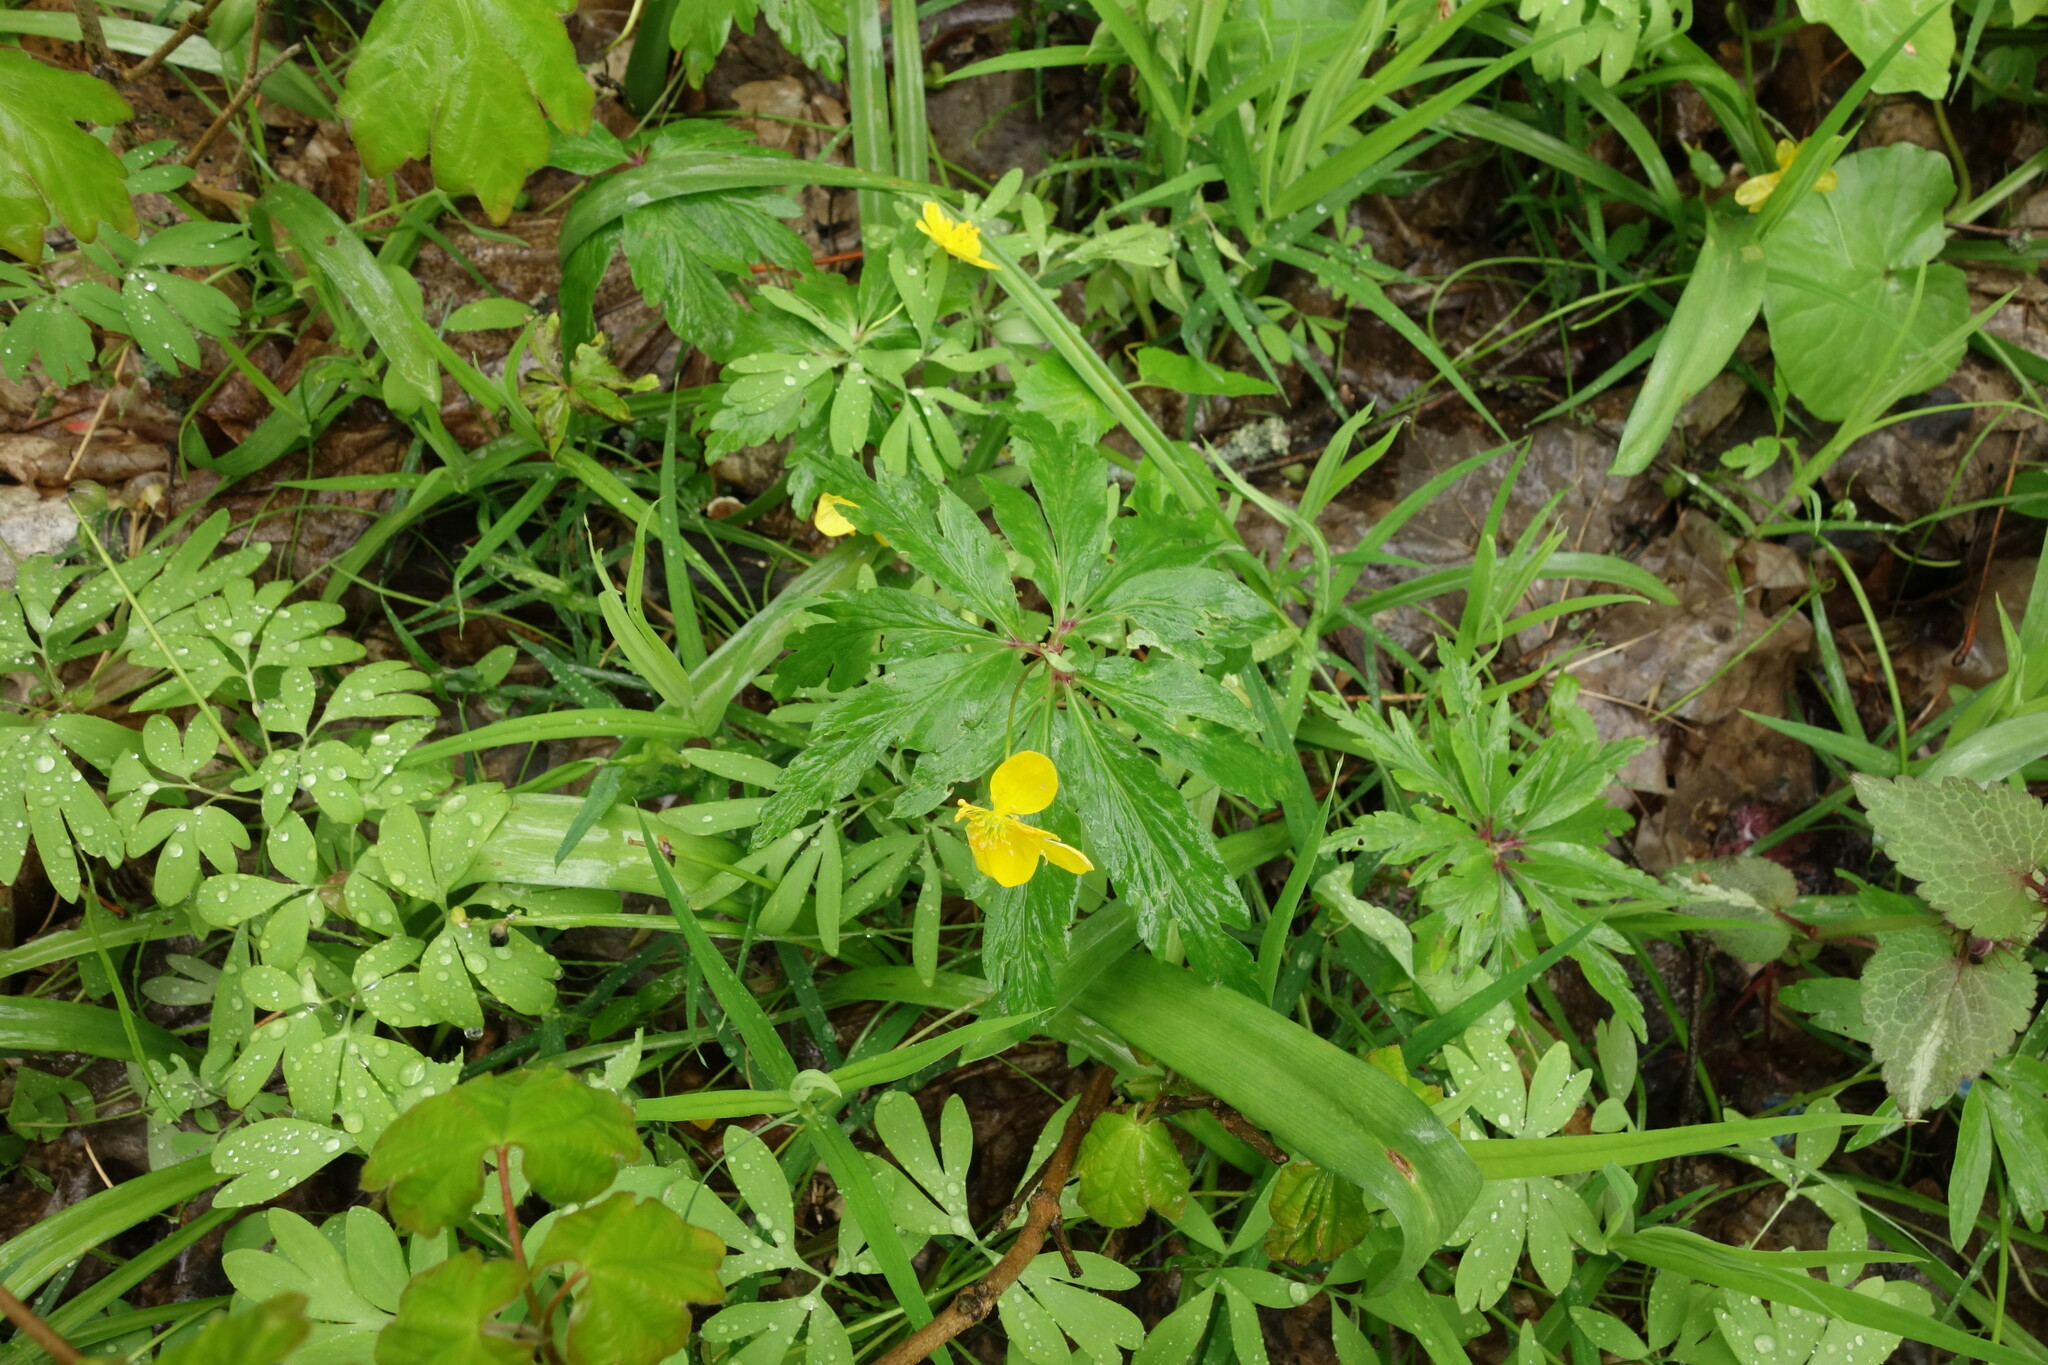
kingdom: Plantae
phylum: Tracheophyta
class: Magnoliopsida
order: Ranunculales
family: Ranunculaceae
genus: Anemone
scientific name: Anemone ranunculoides
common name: Yellow anemone
